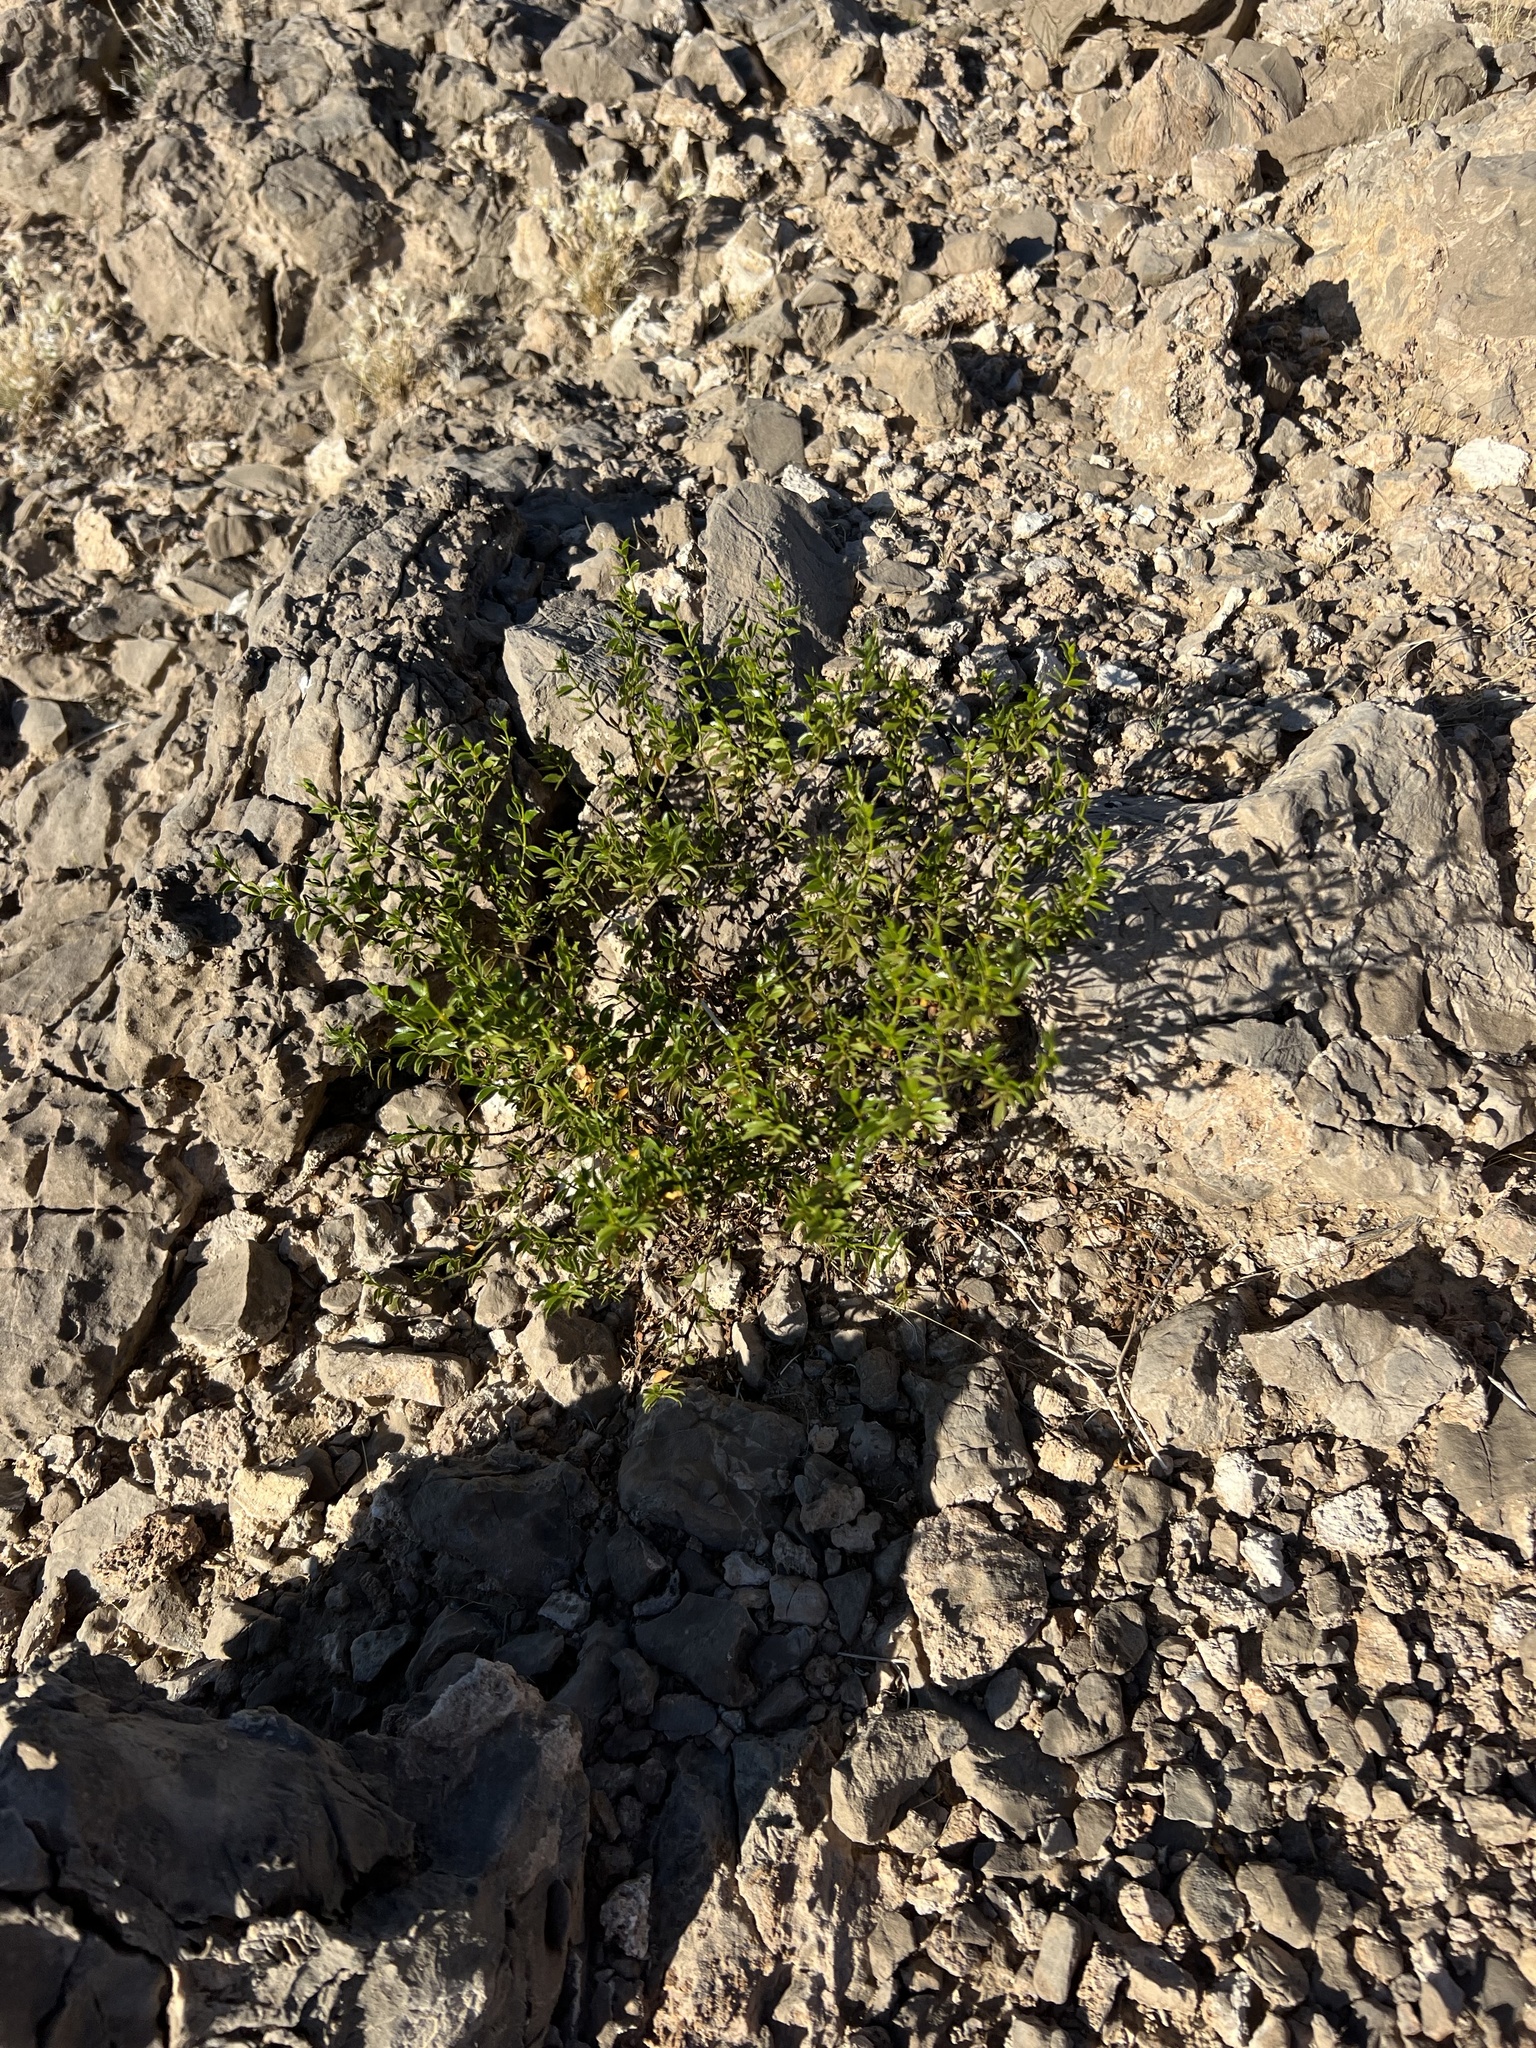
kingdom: Plantae
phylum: Tracheophyta
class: Magnoliopsida
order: Zygophyllales
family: Zygophyllaceae
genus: Larrea
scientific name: Larrea tridentata
